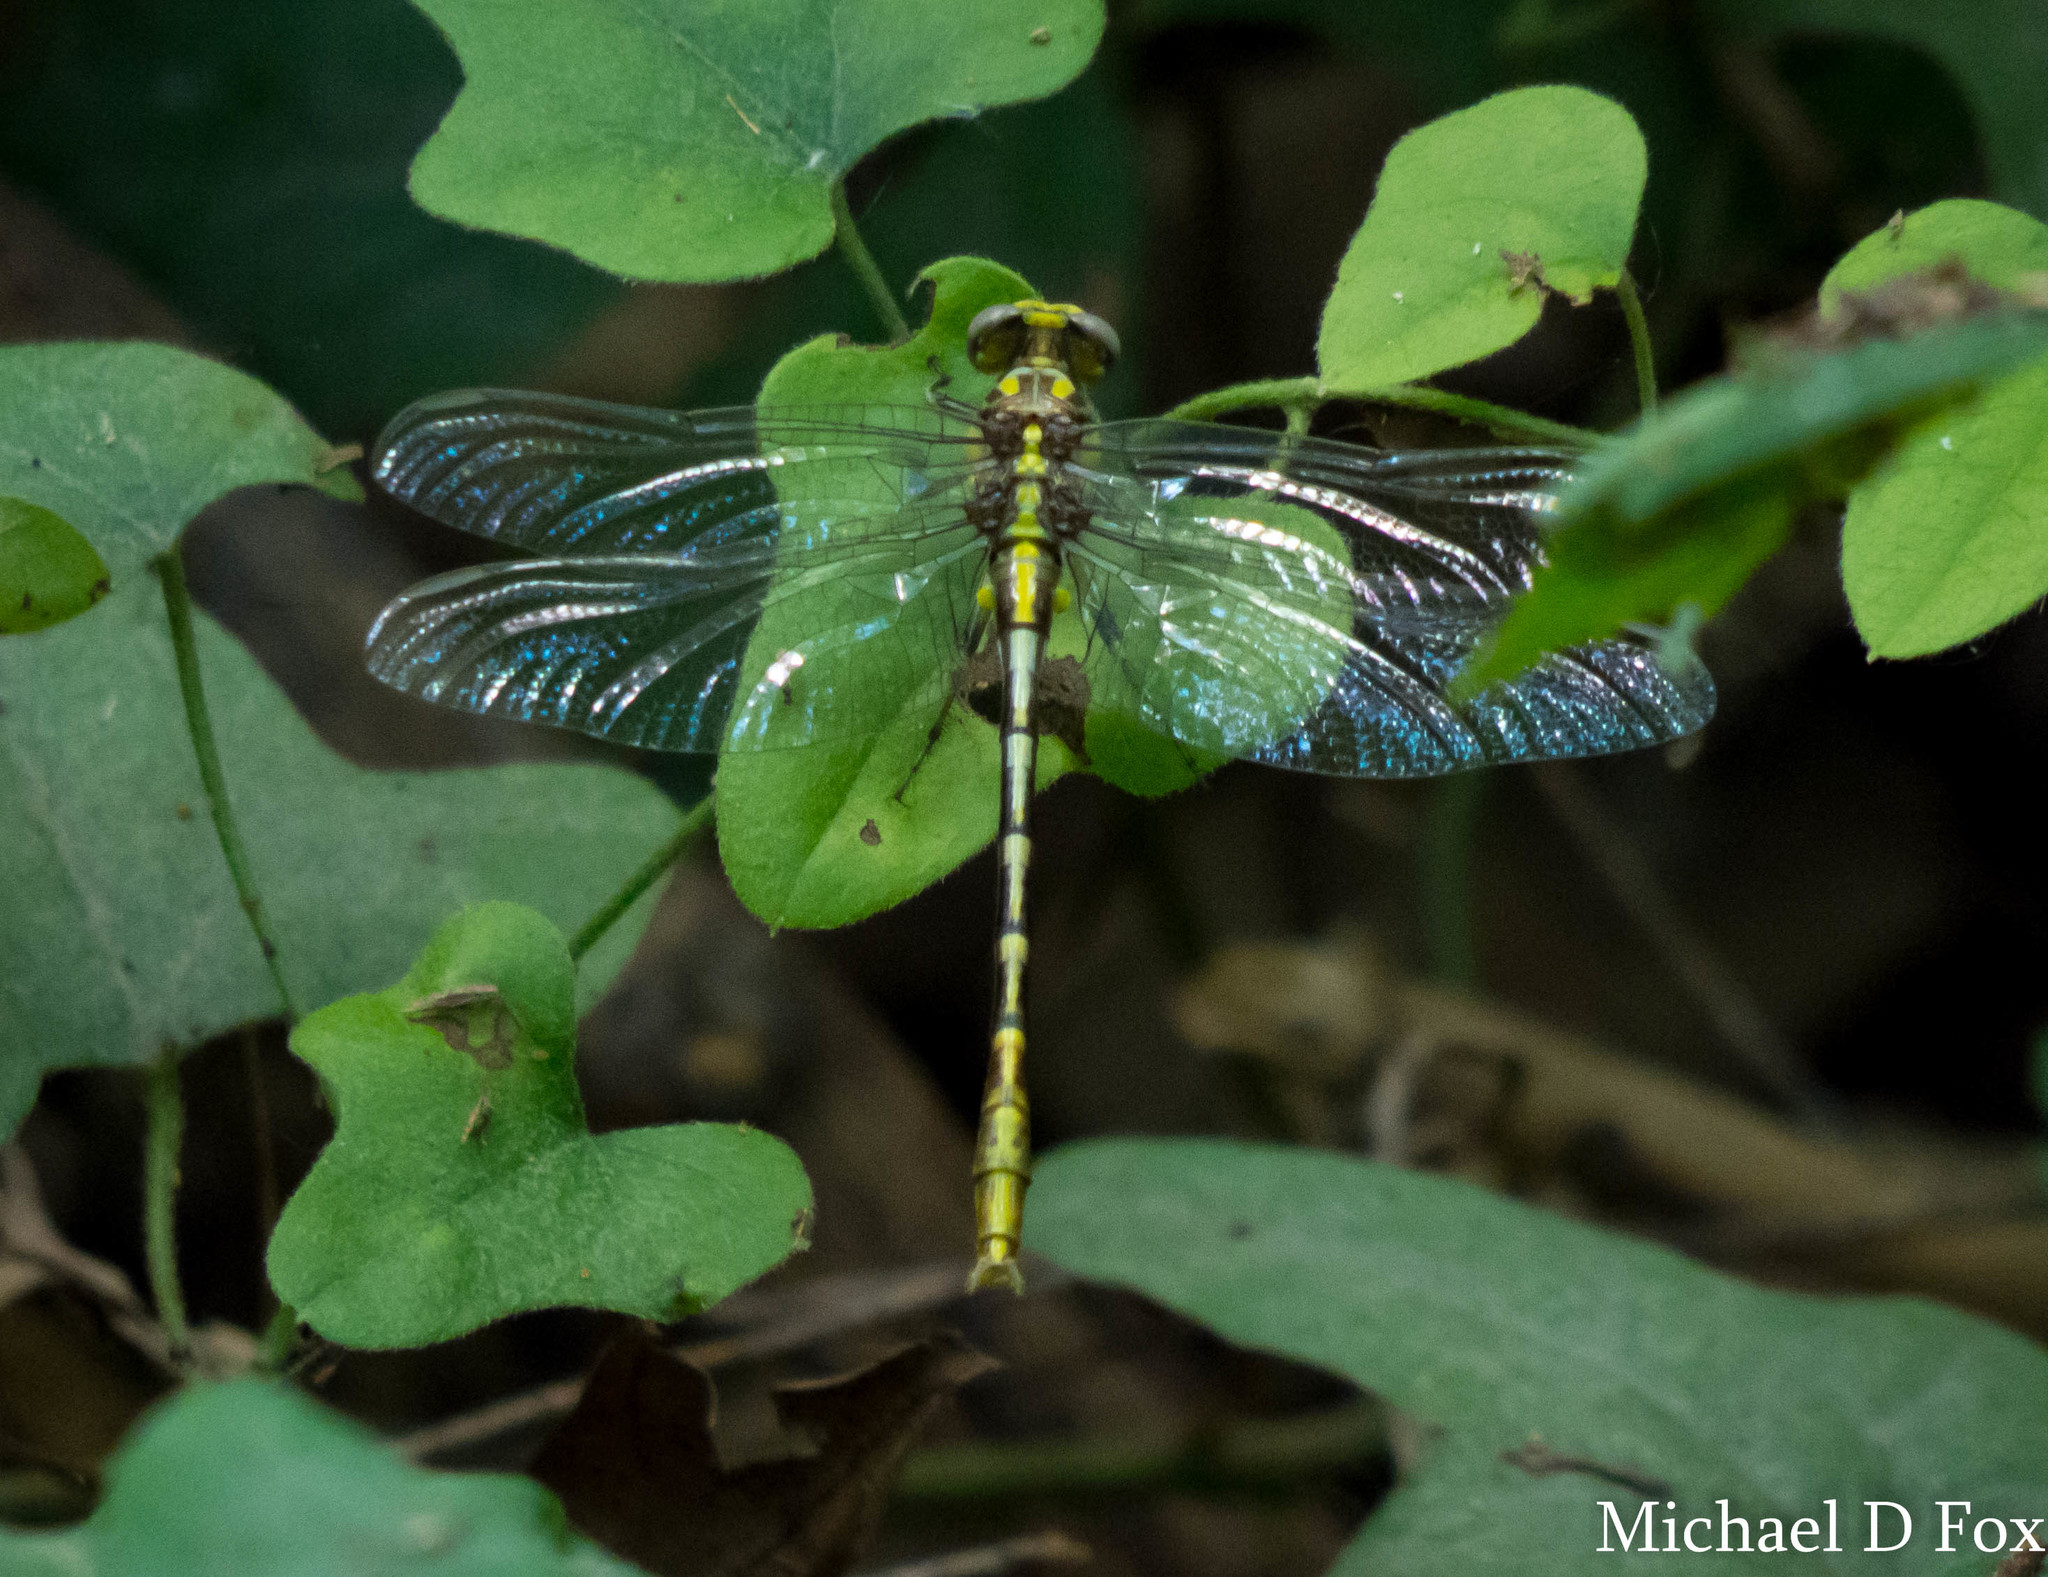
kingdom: Animalia
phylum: Arthropoda
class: Insecta
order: Odonata
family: Gomphidae
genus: Phanogomphus
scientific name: Phanogomphus militaris
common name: Sulphur-tipped clubtail
